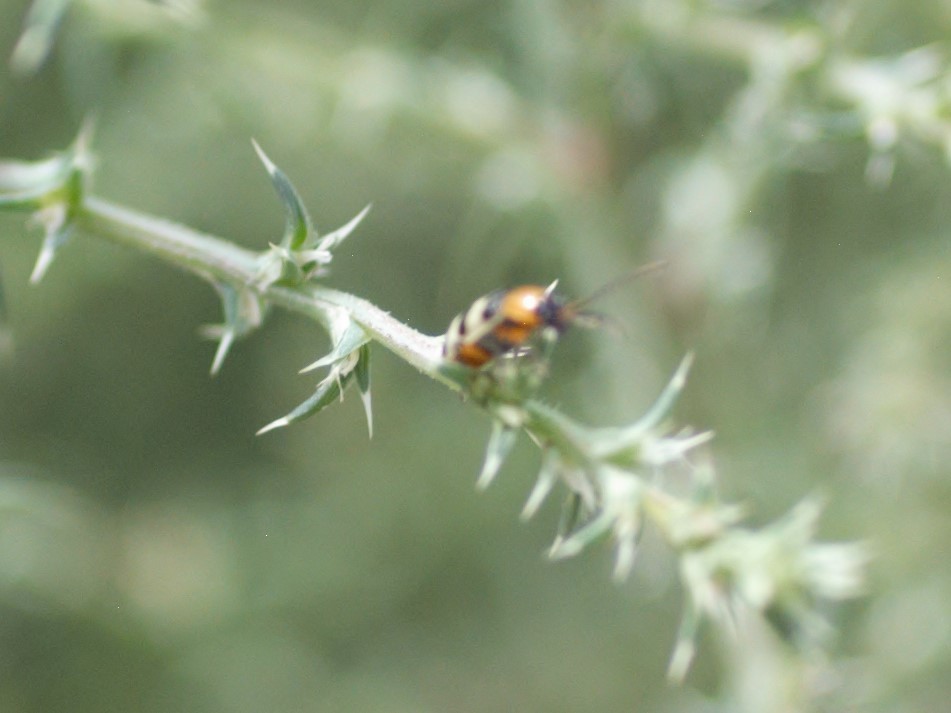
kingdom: Animalia
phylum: Arthropoda
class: Insecta
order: Coleoptera
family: Chrysomelidae
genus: Paranapiacaba
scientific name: Paranapiacaba tricincta
